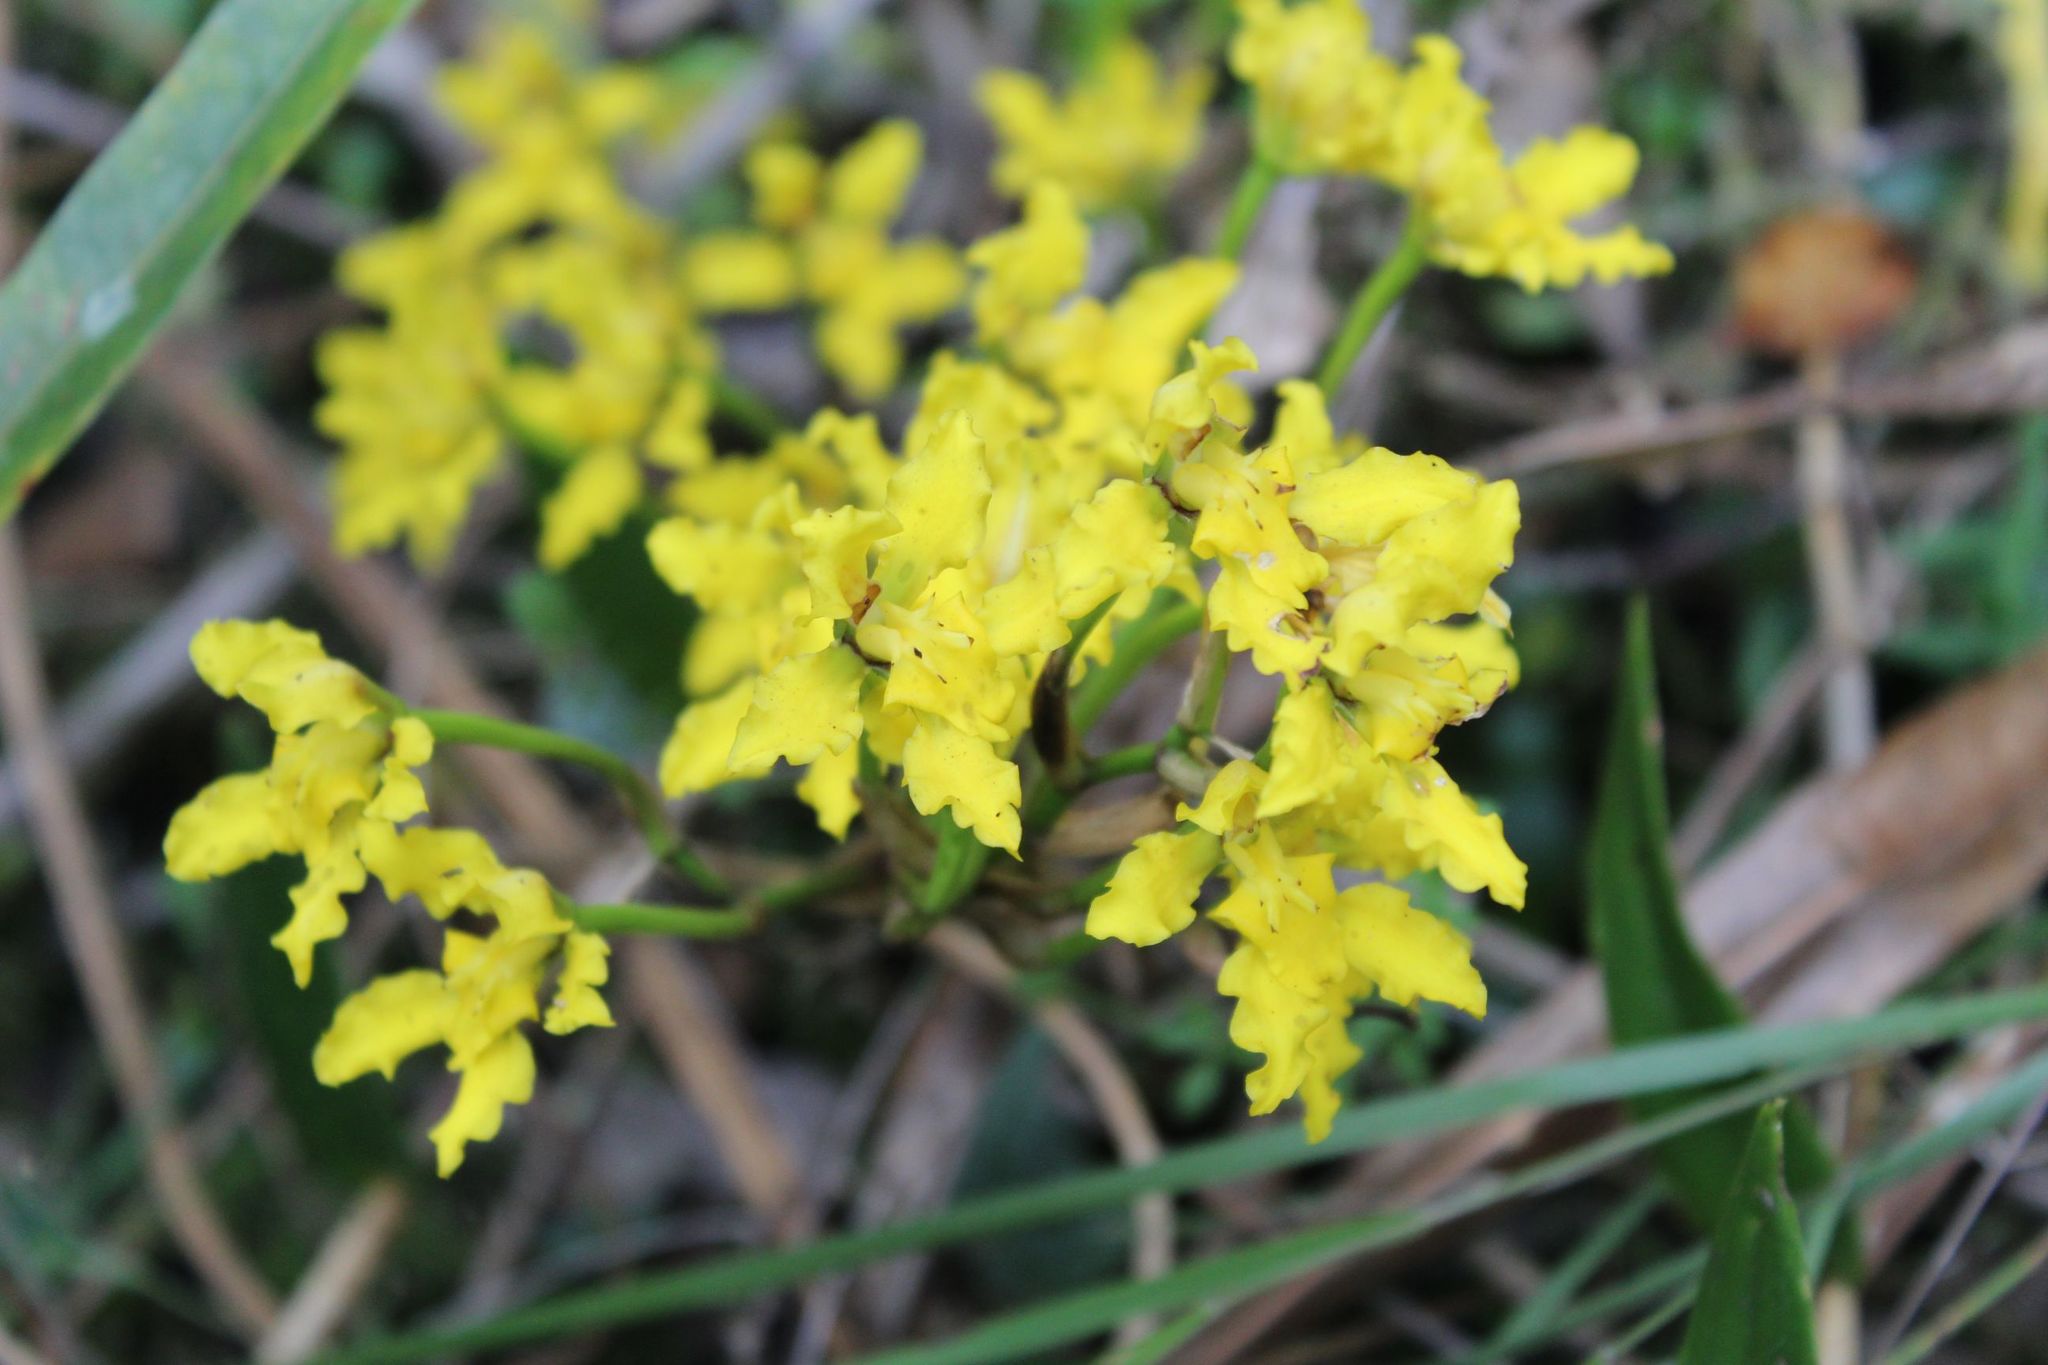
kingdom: Plantae
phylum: Tracheophyta
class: Liliopsida
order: Asparagales
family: Orchidaceae
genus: Cyrtochilum
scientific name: Cyrtochilum revolutum
